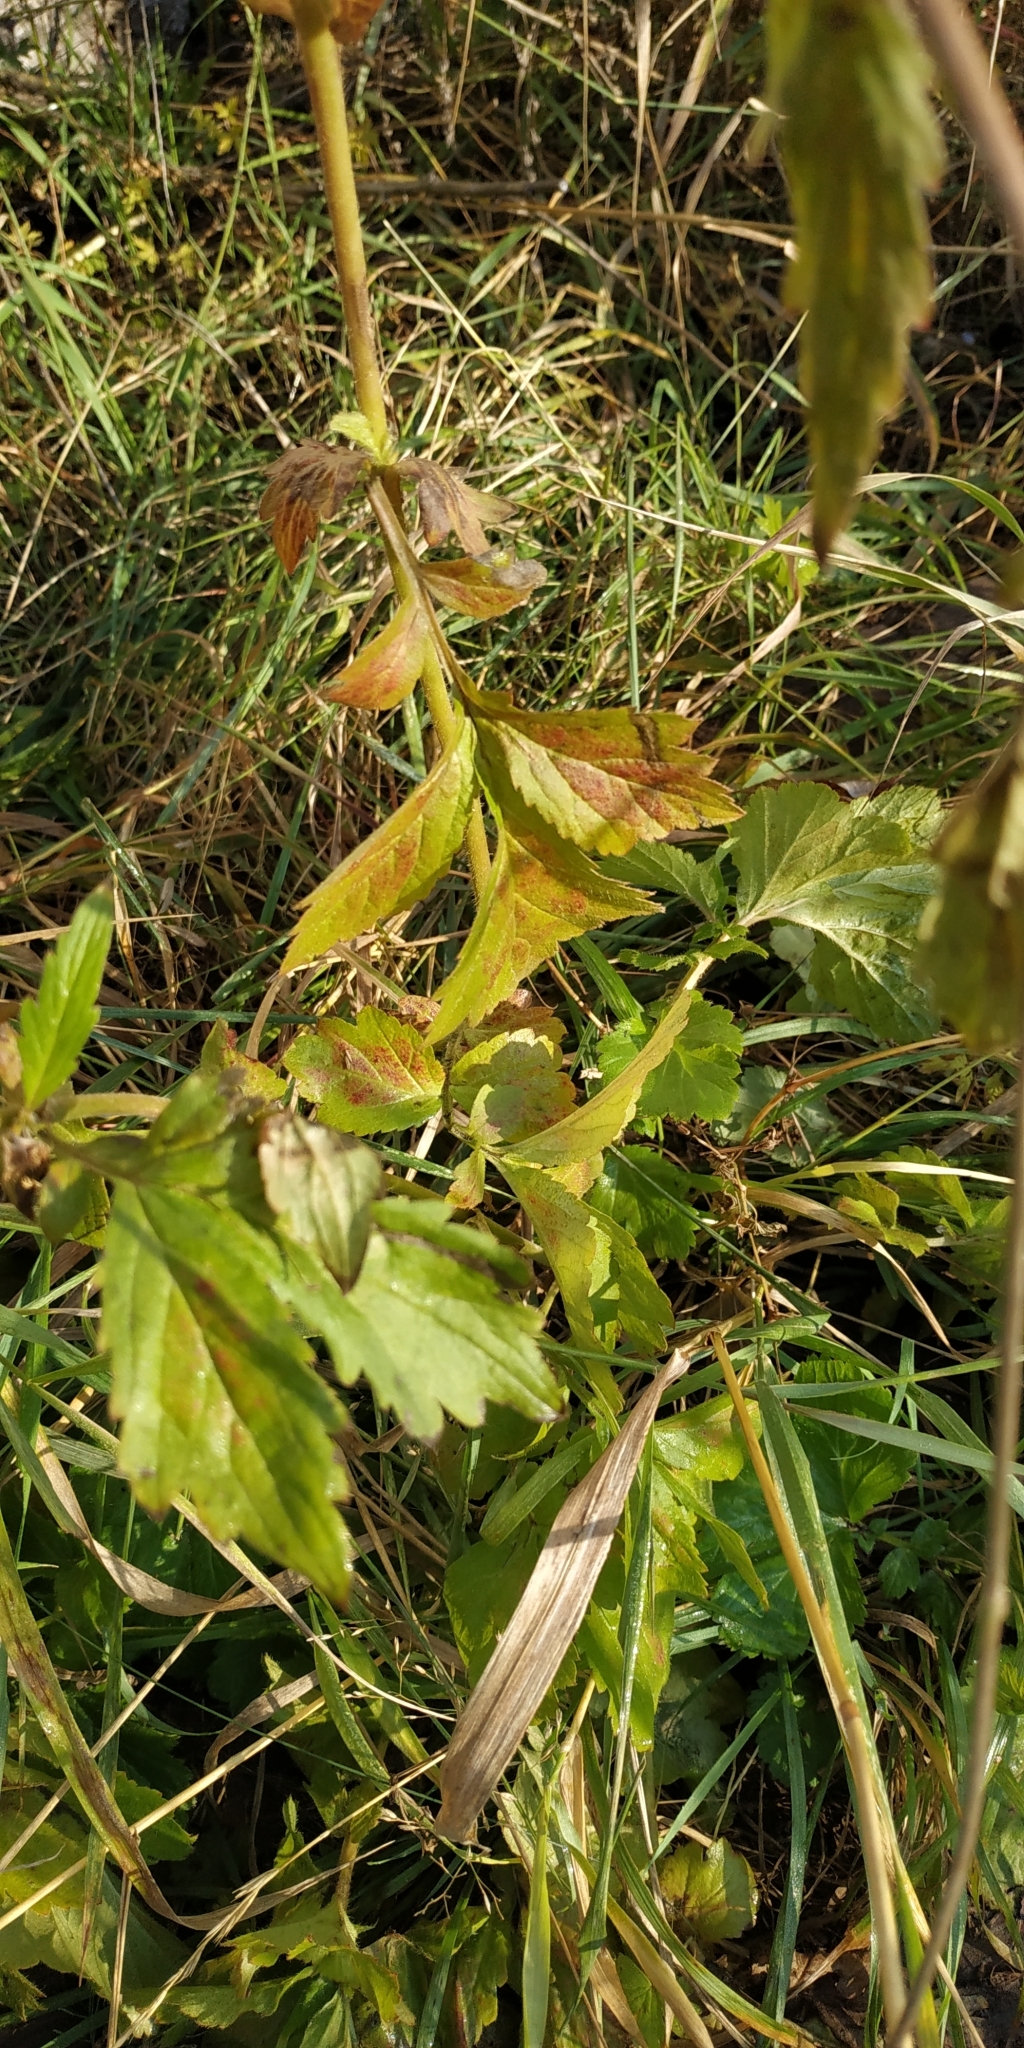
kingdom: Plantae
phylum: Tracheophyta
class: Magnoliopsida
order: Rosales
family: Rosaceae
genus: Geum
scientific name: Geum aleppicum
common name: Yellow avens
